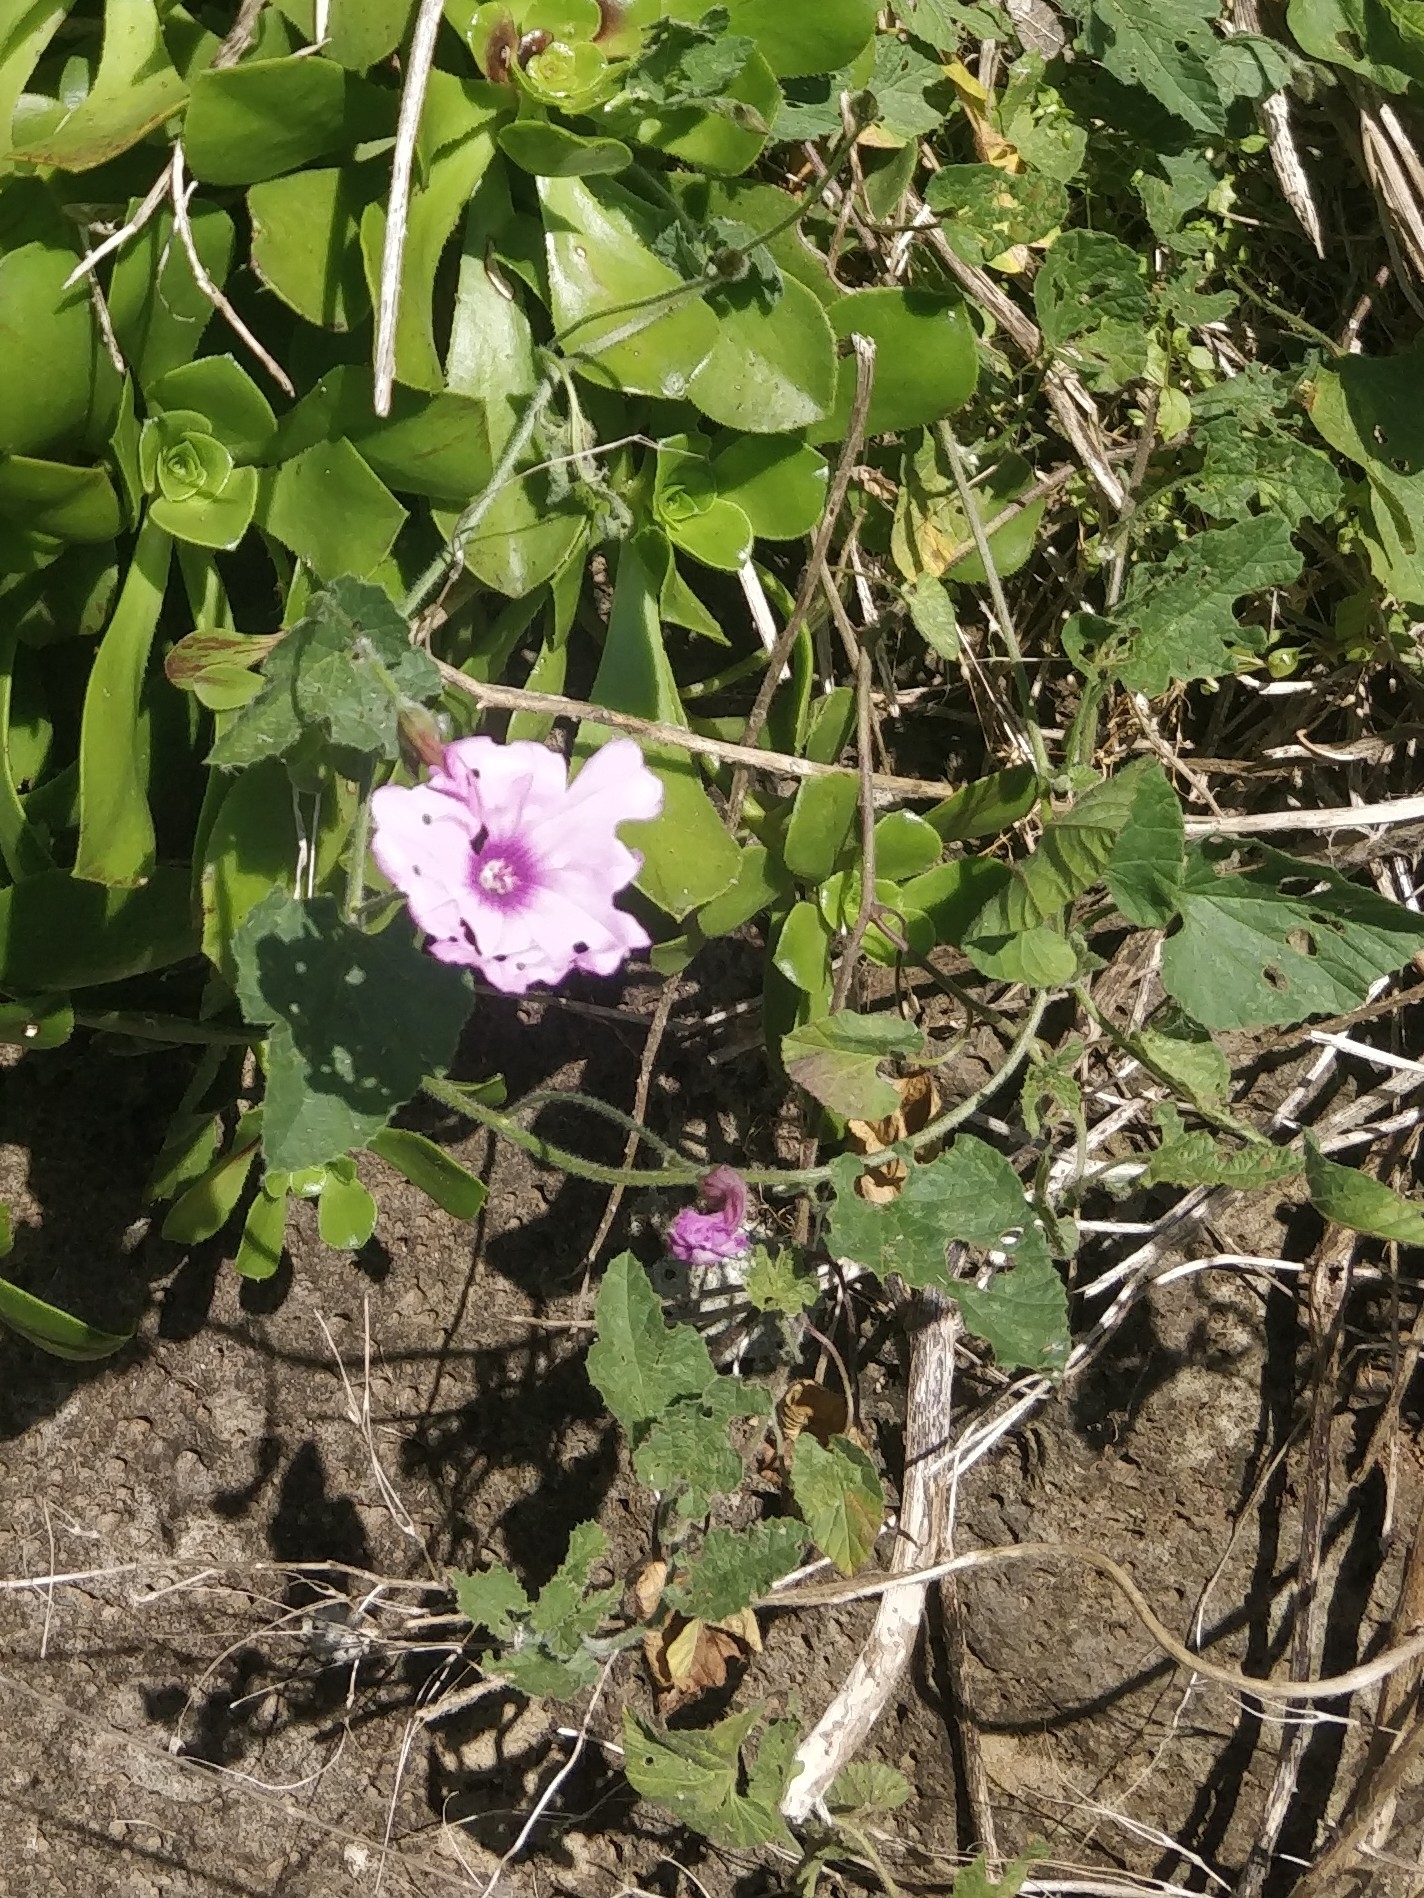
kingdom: Plantae
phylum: Tracheophyta
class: Magnoliopsida
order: Solanales
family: Convolvulaceae
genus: Convolvulus
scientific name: Convolvulus althaeoides
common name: Mallow bindweed
